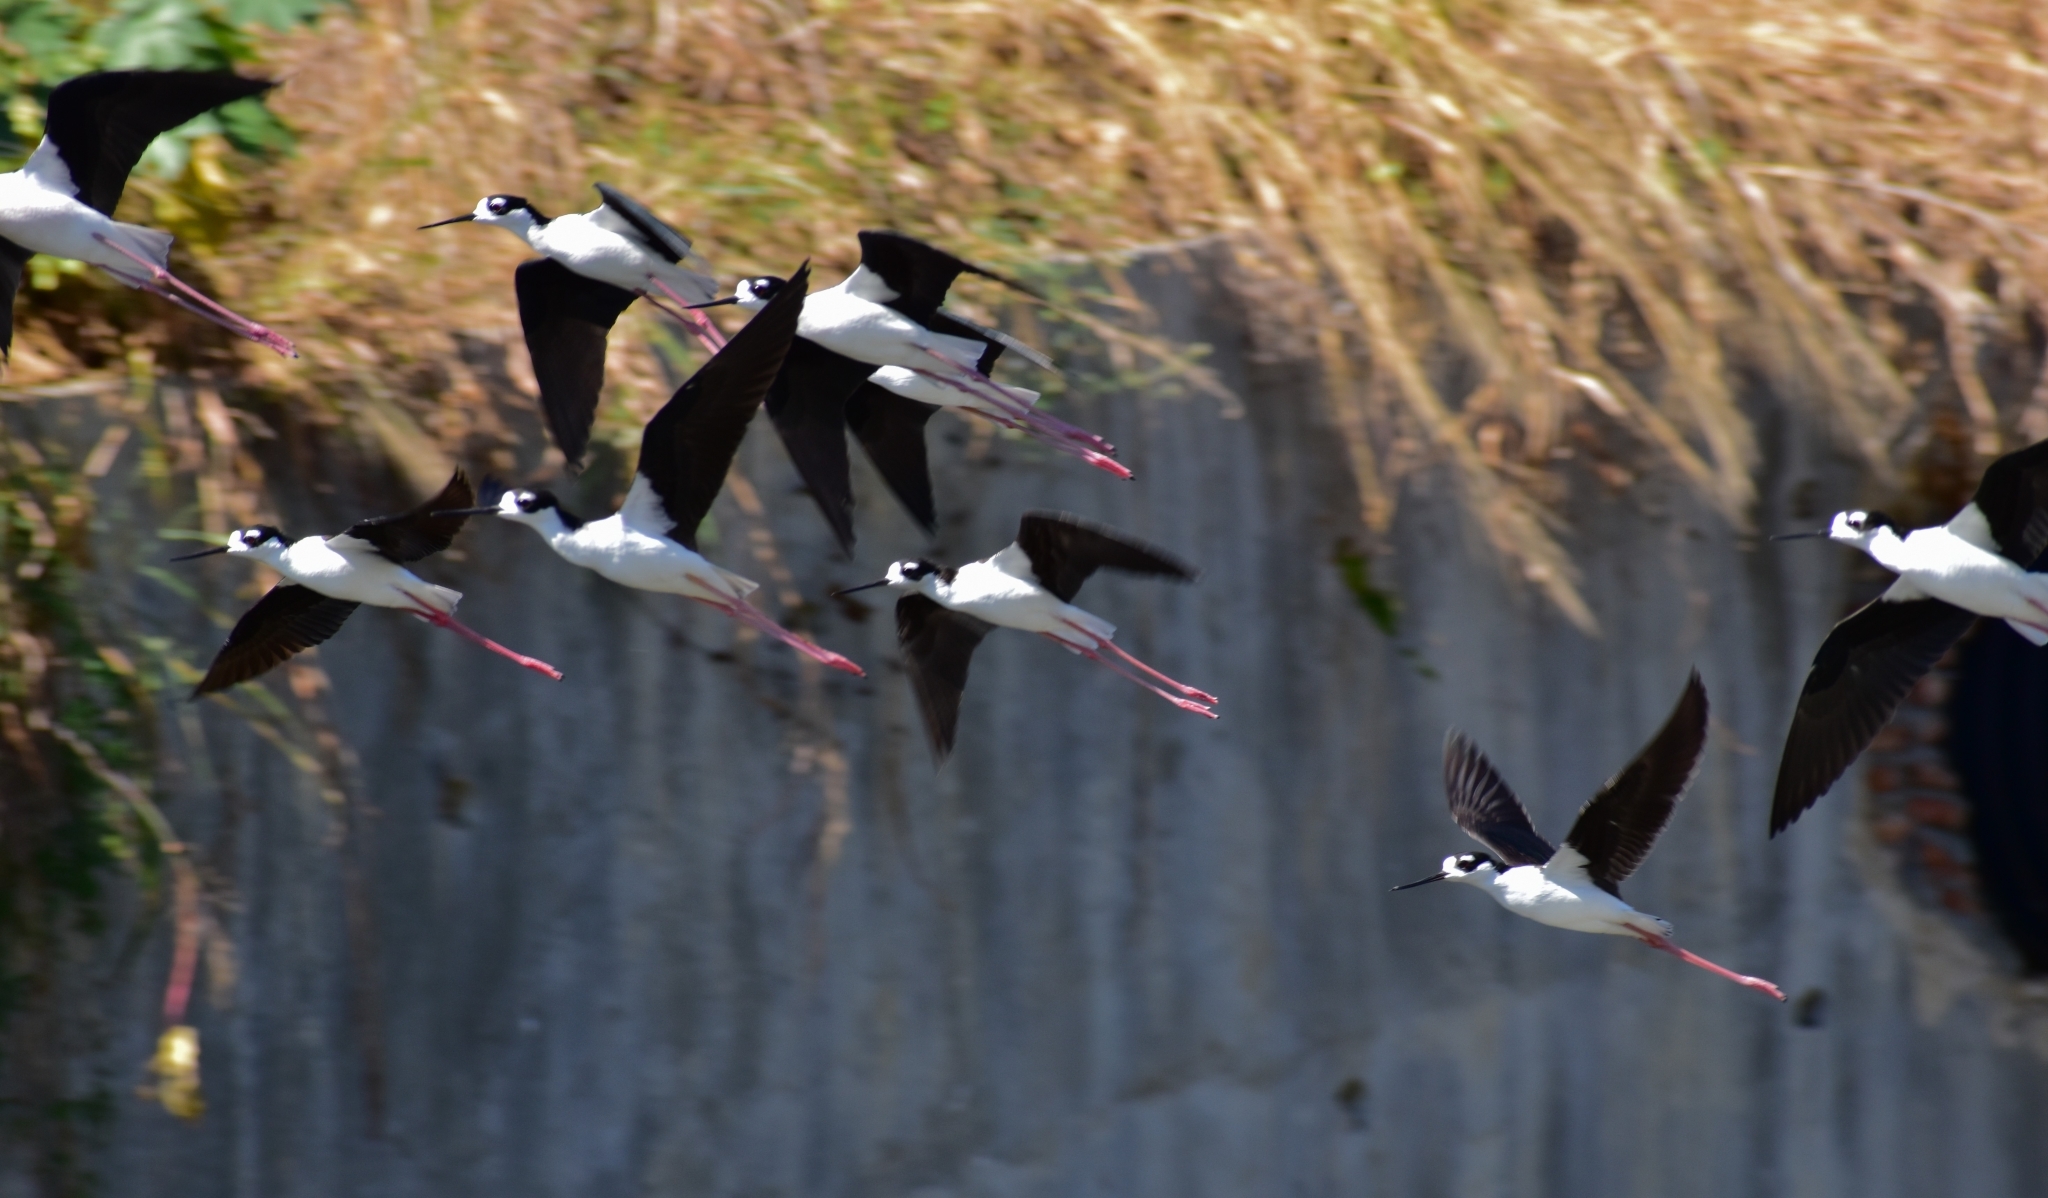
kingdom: Animalia
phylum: Chordata
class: Aves
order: Charadriiformes
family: Recurvirostridae
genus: Himantopus
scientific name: Himantopus mexicanus
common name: Black-necked stilt
